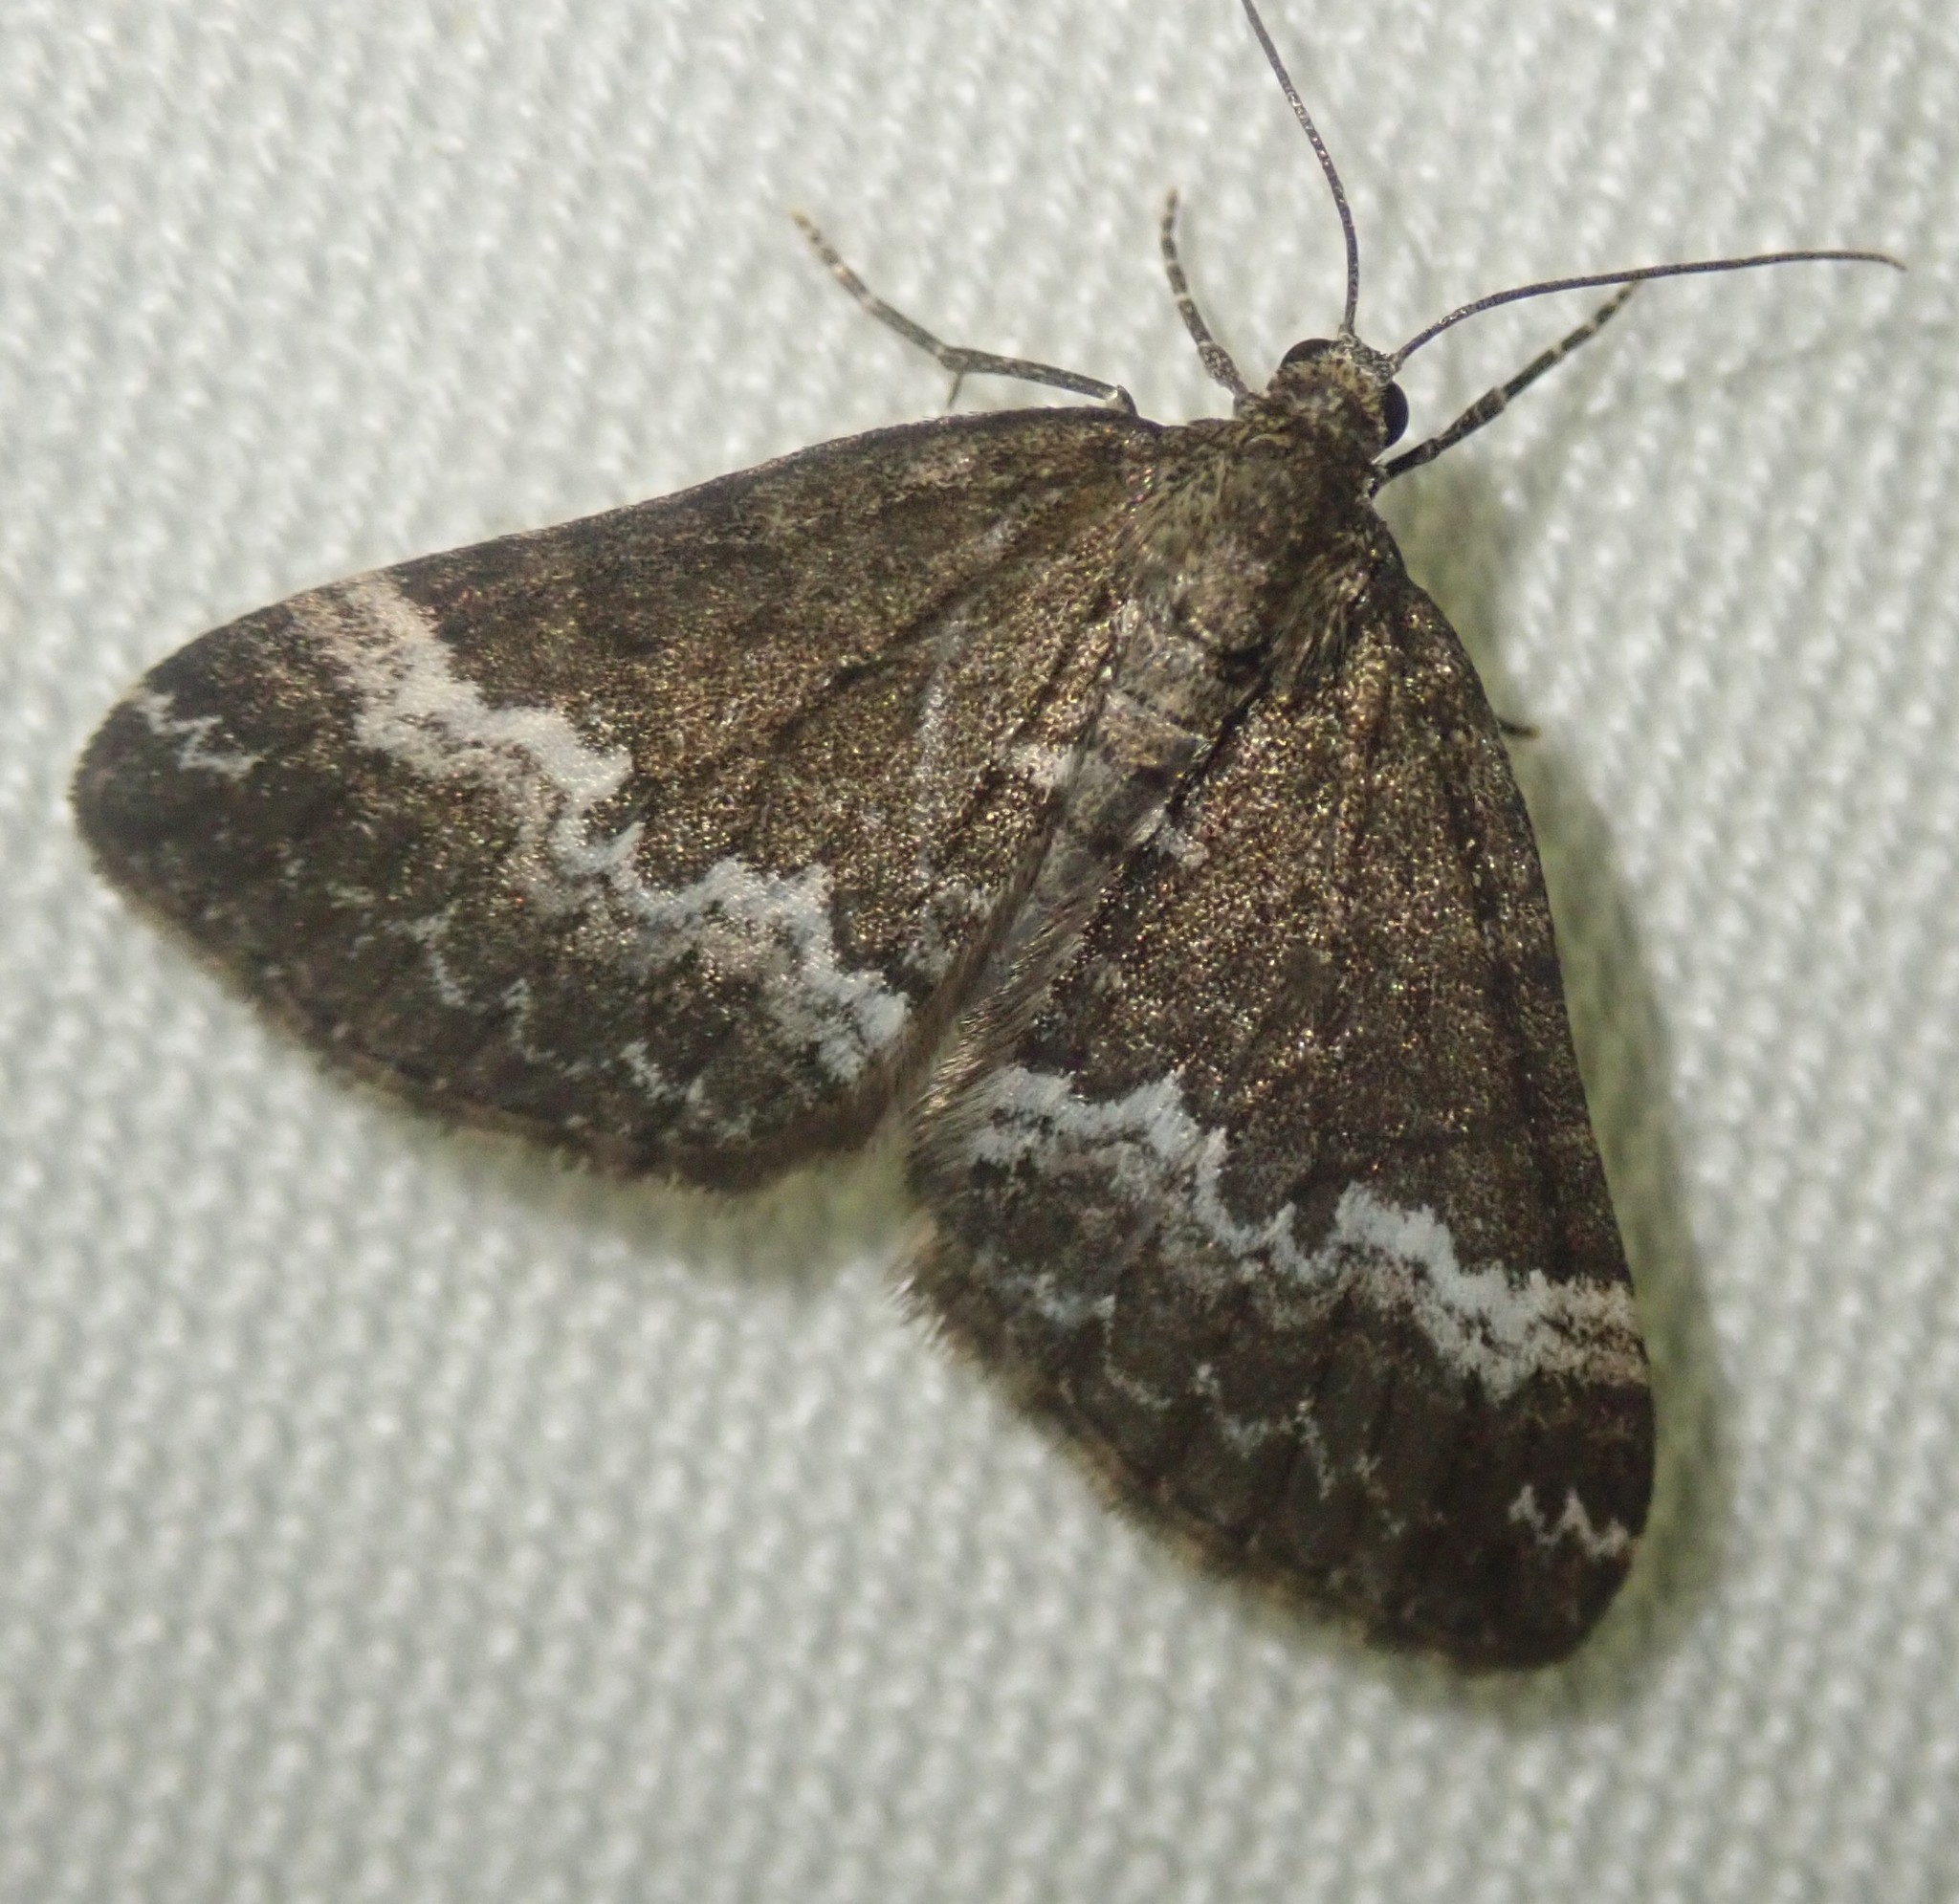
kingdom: Animalia
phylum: Arthropoda
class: Insecta
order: Lepidoptera
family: Geometridae
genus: Perizoma
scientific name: Perizoma alchemillata
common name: Small rivulet
